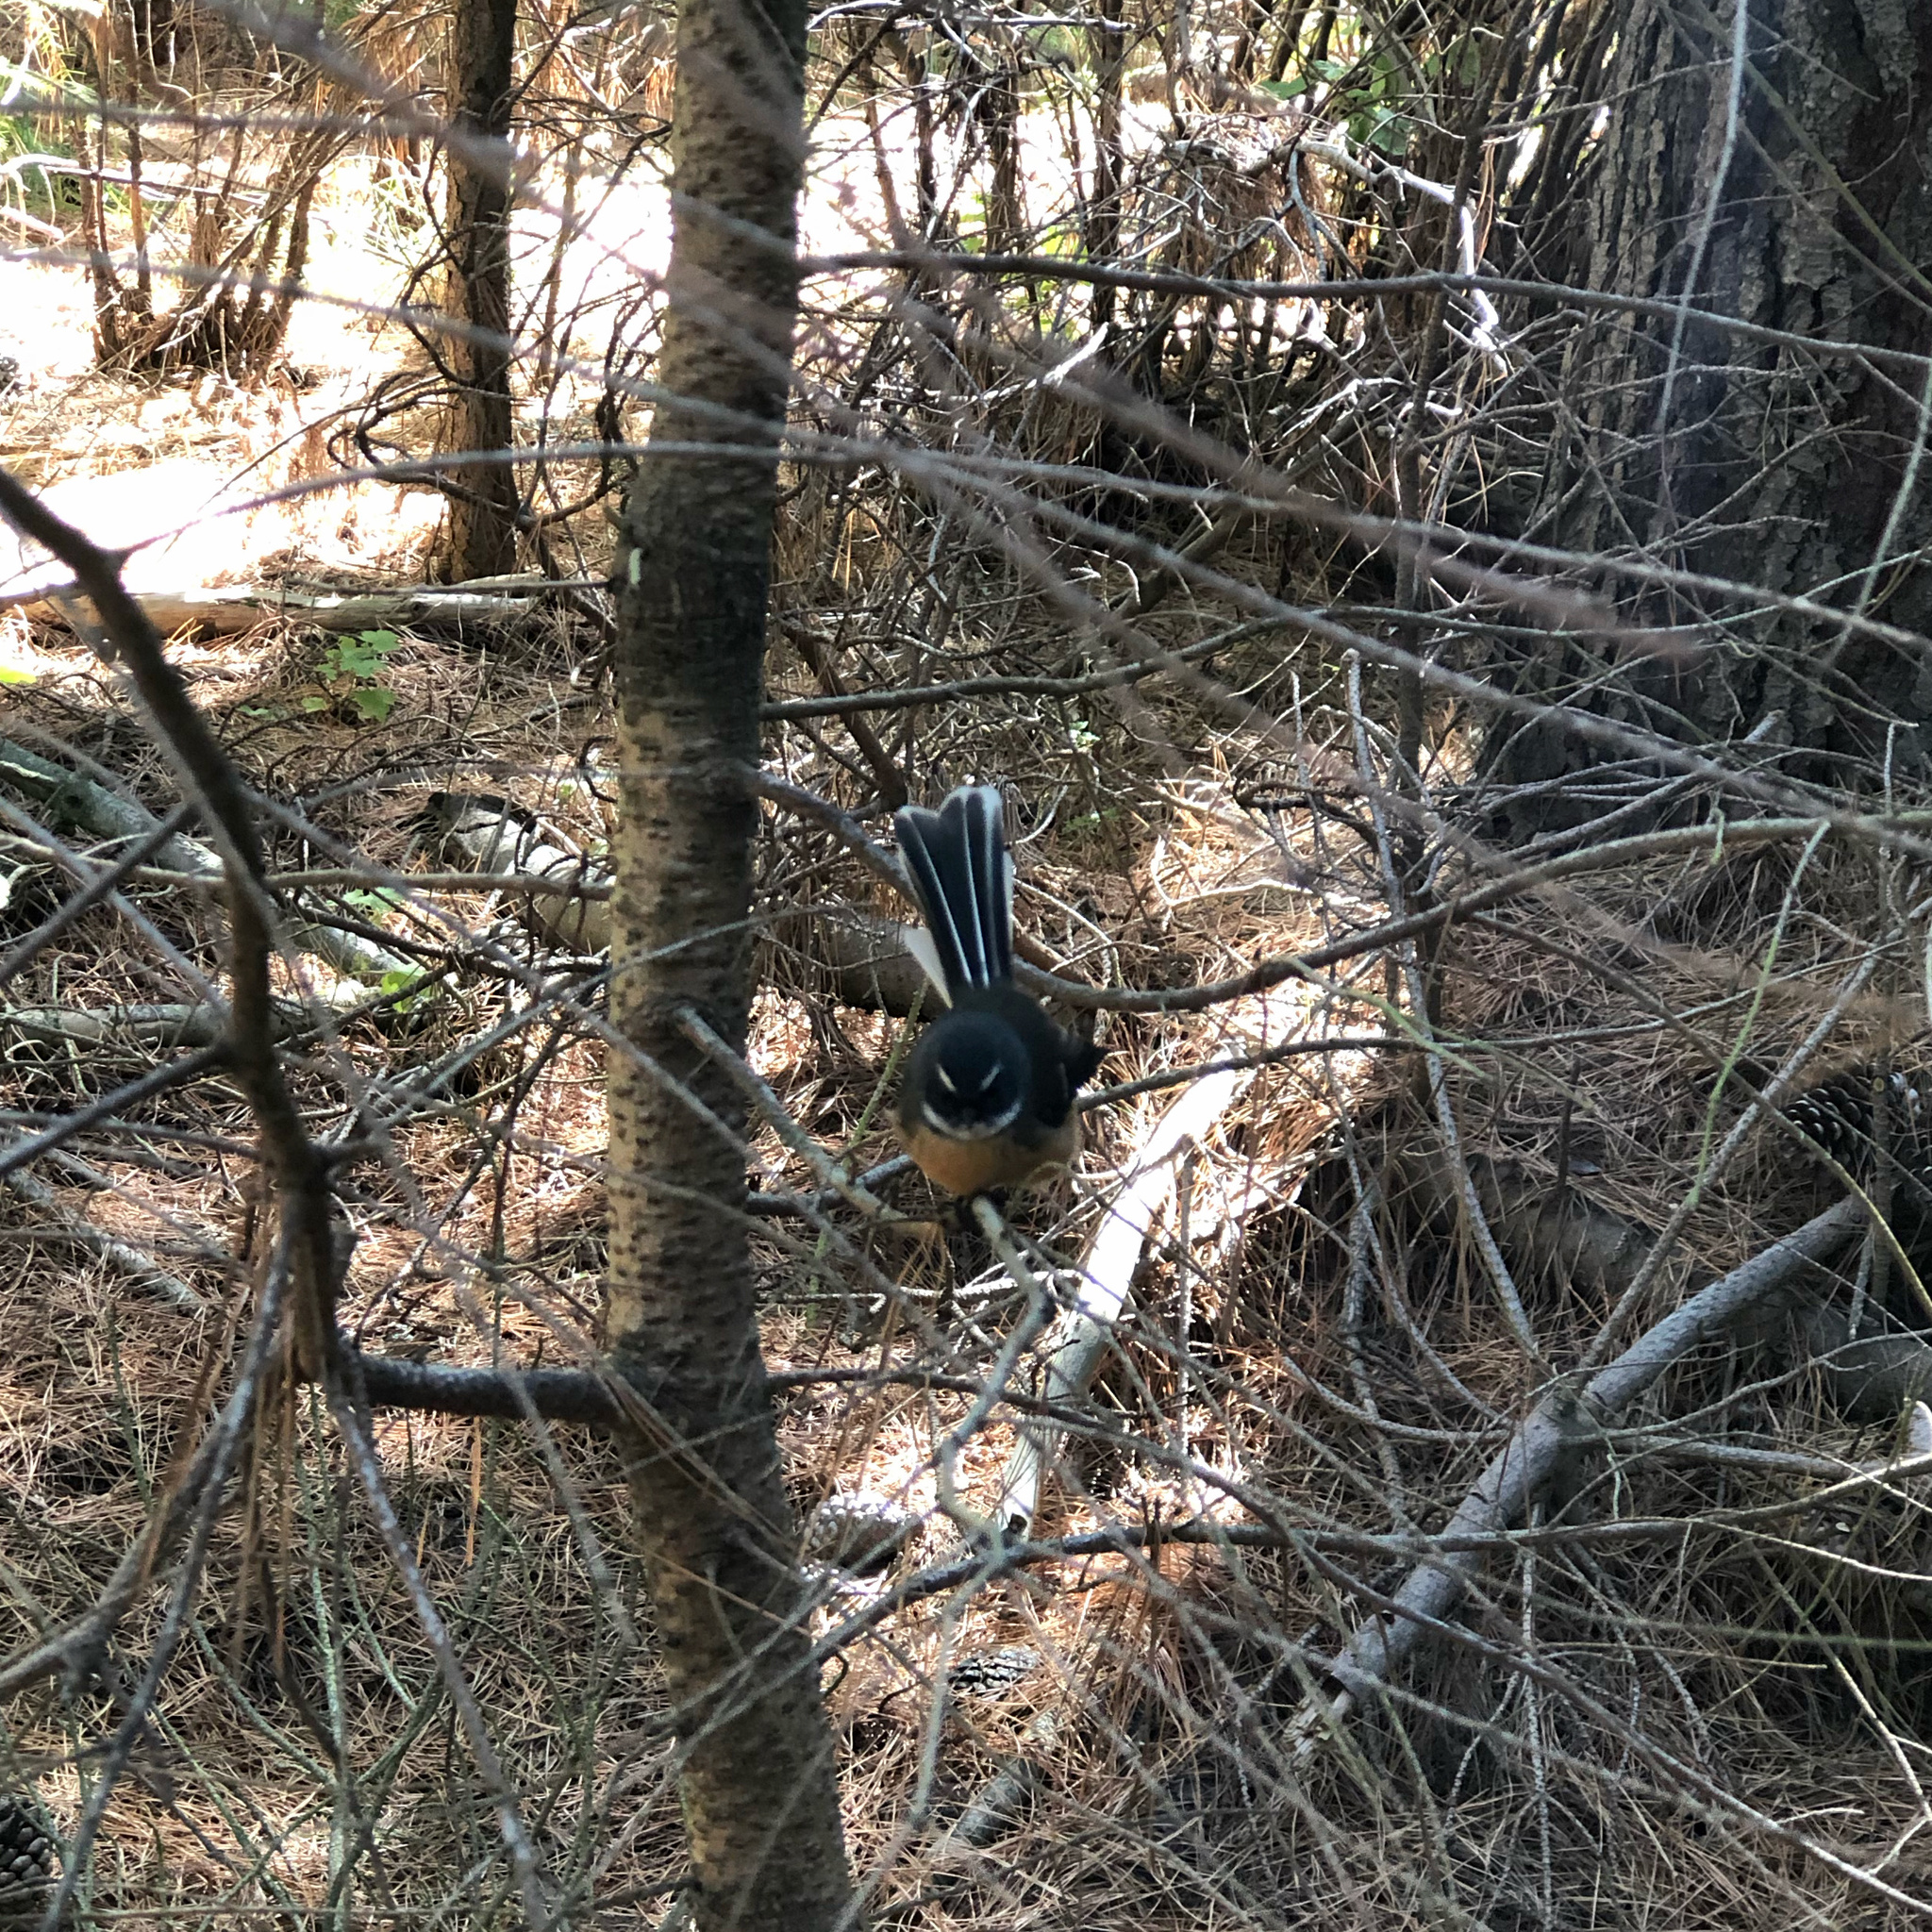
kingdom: Animalia
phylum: Chordata
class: Aves
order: Passeriformes
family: Rhipiduridae
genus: Rhipidura
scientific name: Rhipidura fuliginosa
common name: New zealand fantail
